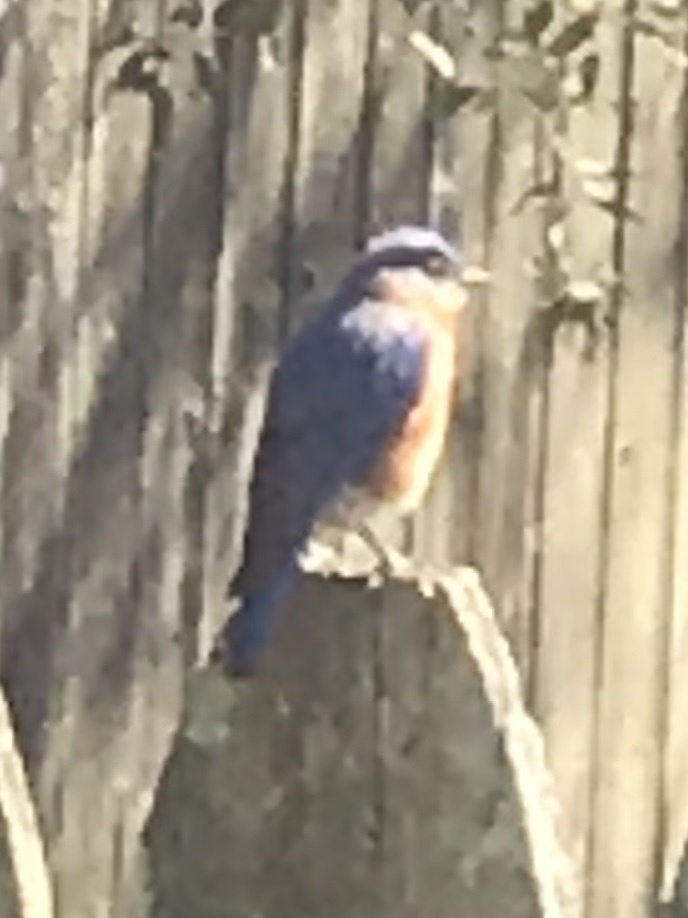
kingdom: Animalia
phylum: Chordata
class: Aves
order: Passeriformes
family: Turdidae
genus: Sialia
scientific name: Sialia sialis
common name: Eastern bluebird
